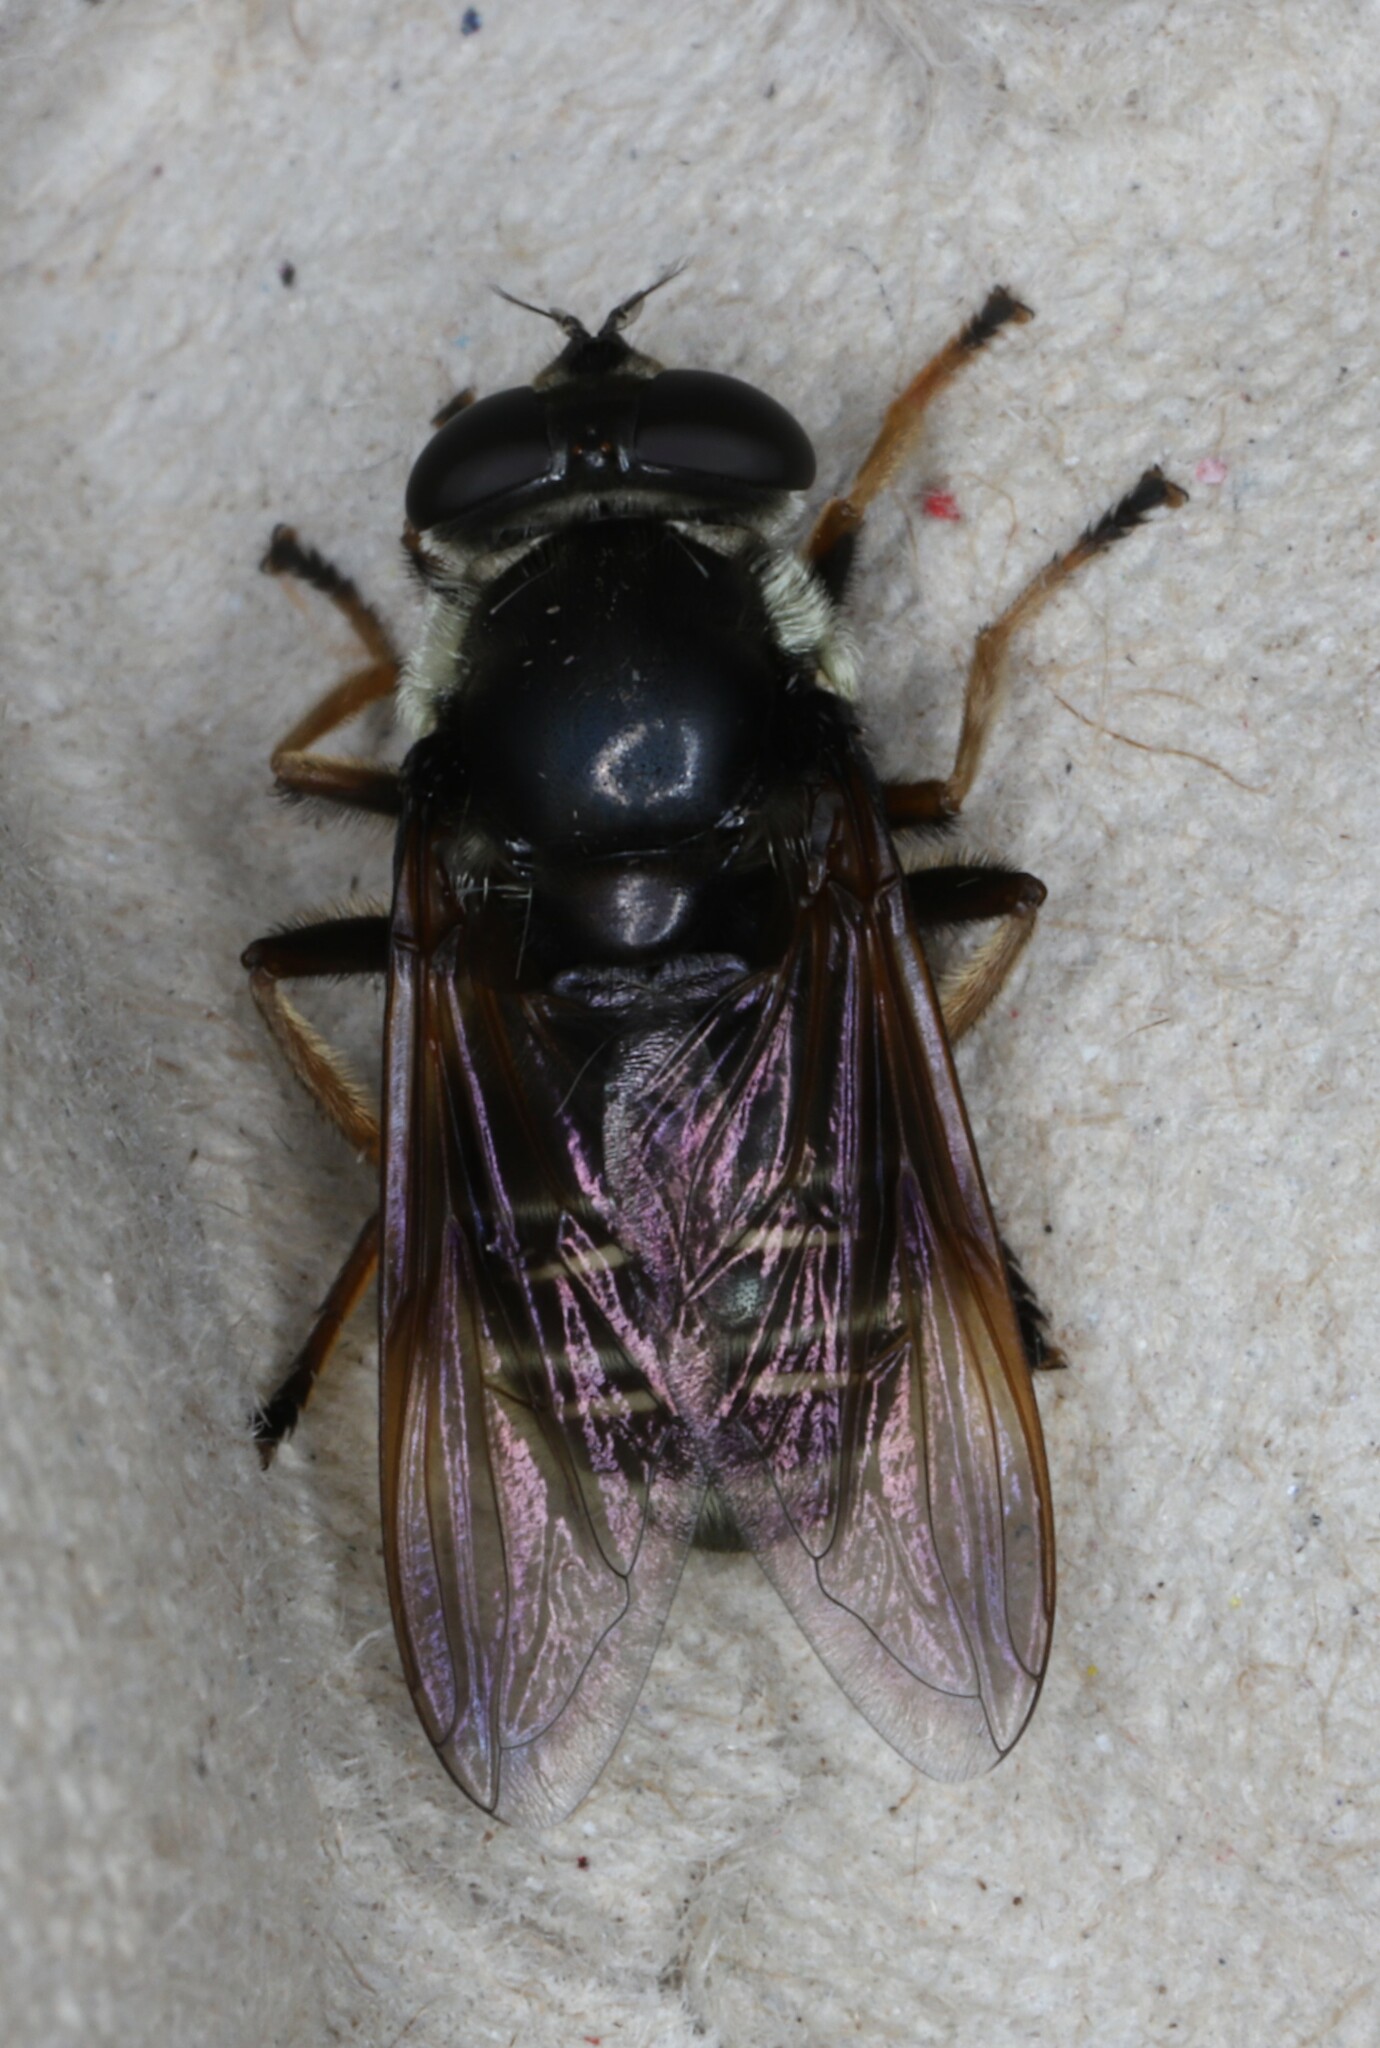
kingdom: Animalia
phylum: Arthropoda
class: Insecta
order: Diptera
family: Syrphidae
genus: Sericomyia
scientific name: Sericomyia militaris
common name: Narrow-banded pond fly
